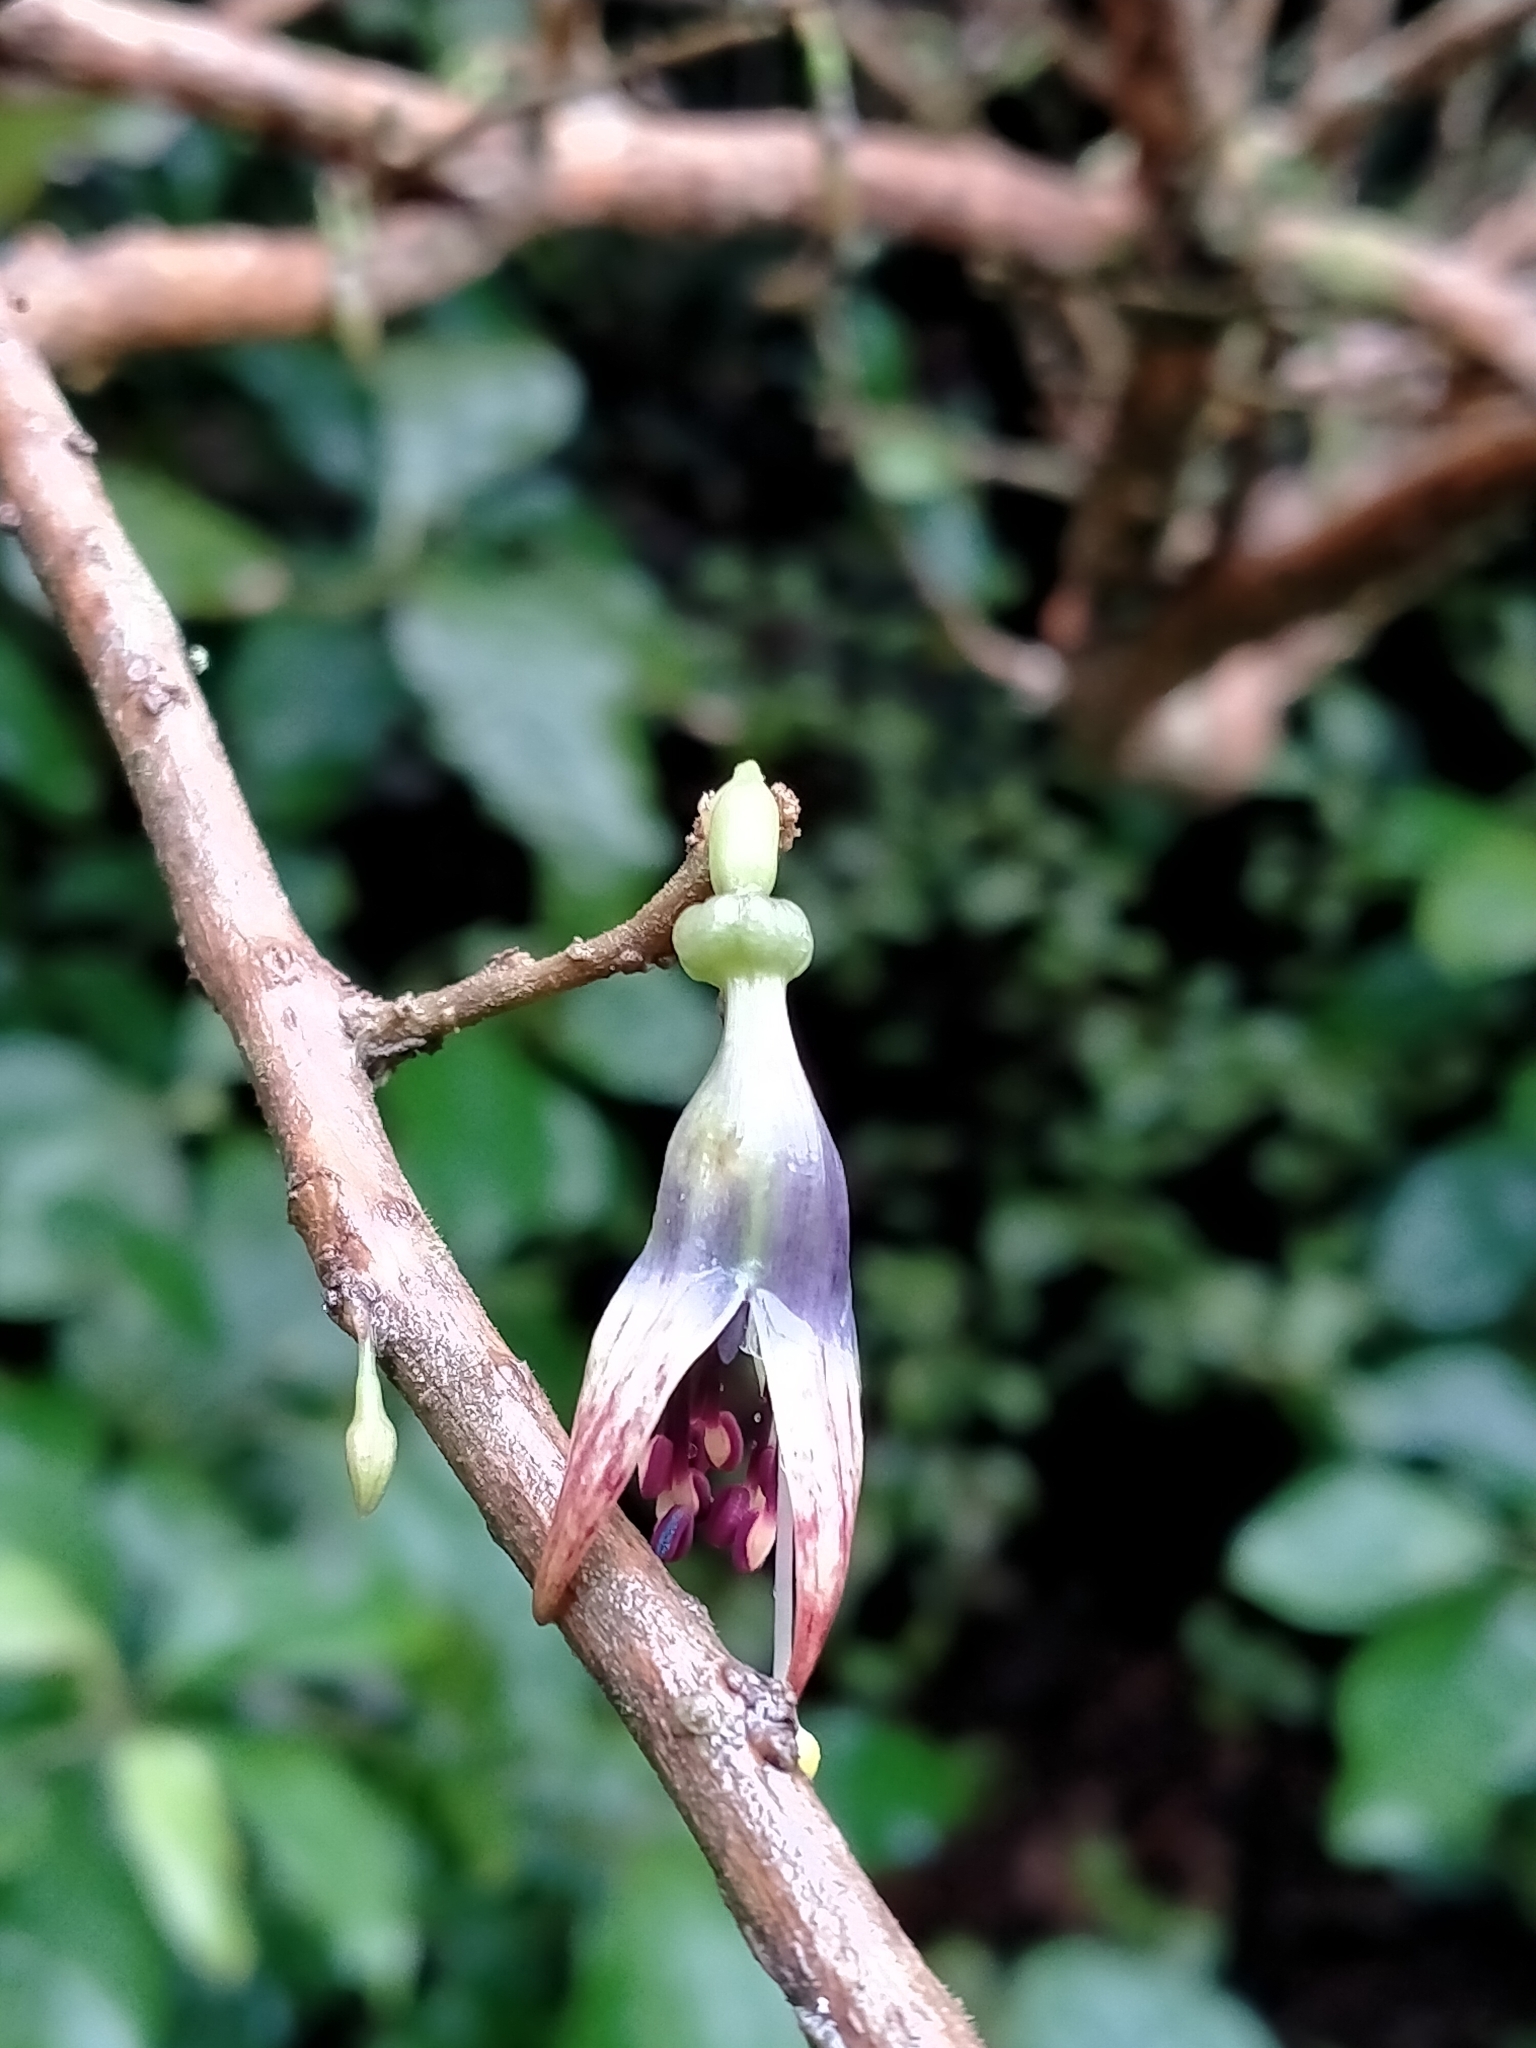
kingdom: Plantae
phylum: Tracheophyta
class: Magnoliopsida
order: Myrtales
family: Onagraceae
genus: Fuchsia
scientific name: Fuchsia excorticata
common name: Tree fuchsia
